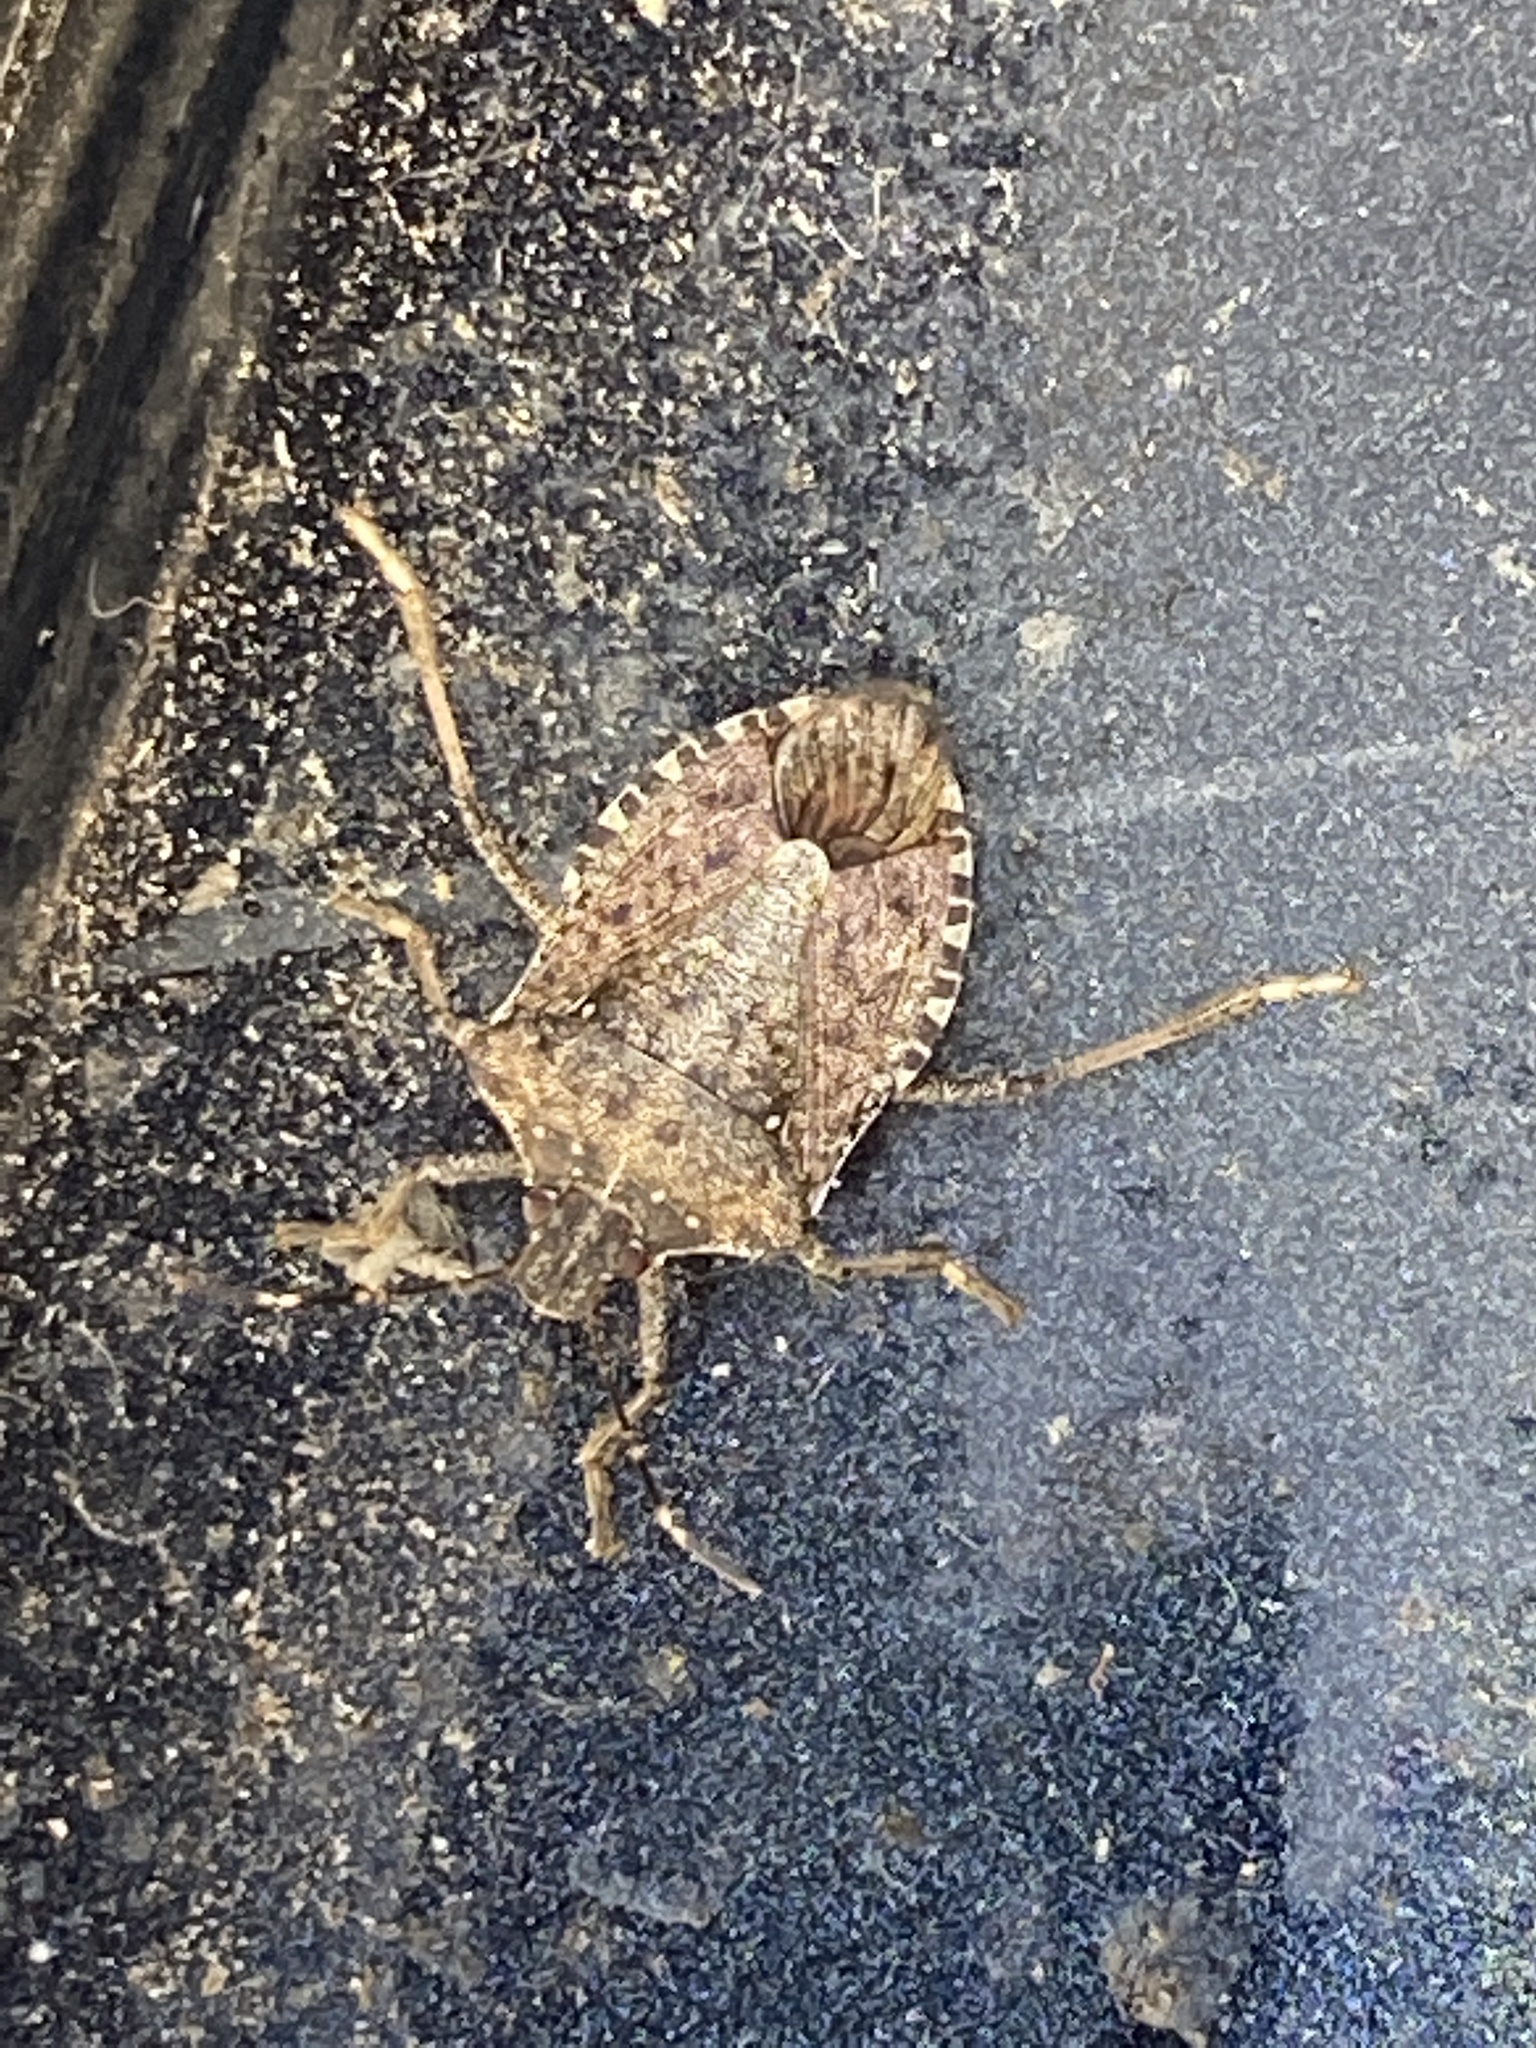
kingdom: Animalia
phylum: Arthropoda
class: Insecta
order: Hemiptera
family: Pentatomidae
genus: Halyomorpha
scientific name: Halyomorpha halys
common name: Brown marmorated stink bug
